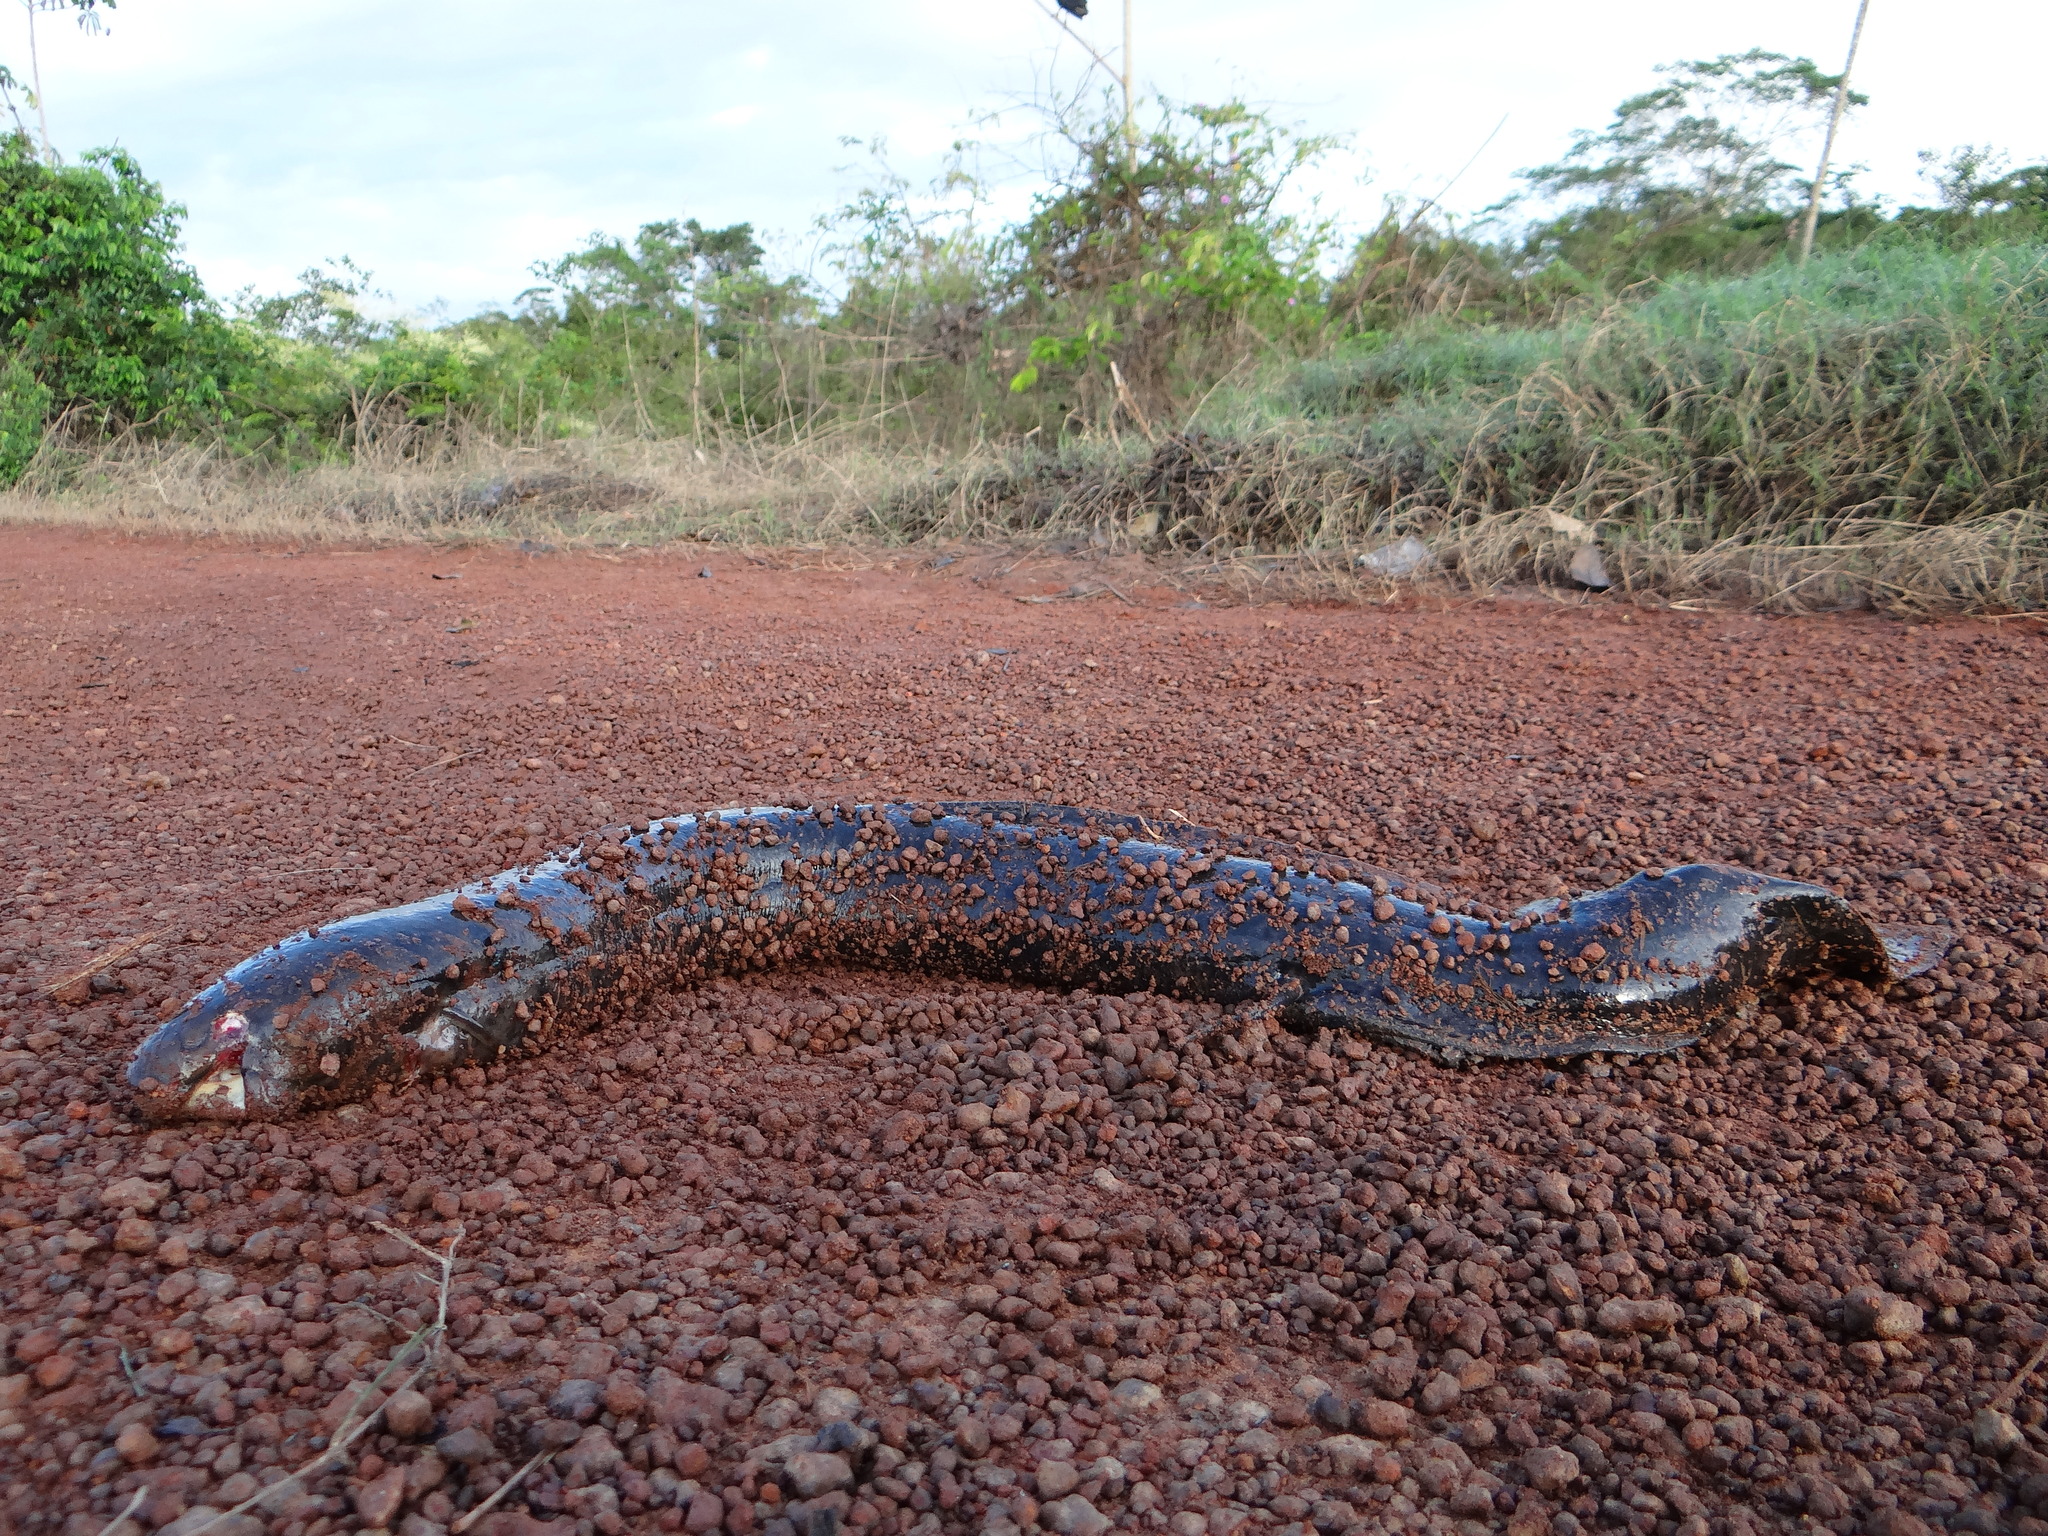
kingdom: Animalia
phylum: Chordata
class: Dipneusti
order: Ceratodontiformes
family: Lepidosirenidae
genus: Lepidosiren
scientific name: Lepidosiren paradoxa
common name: South american lungfish
